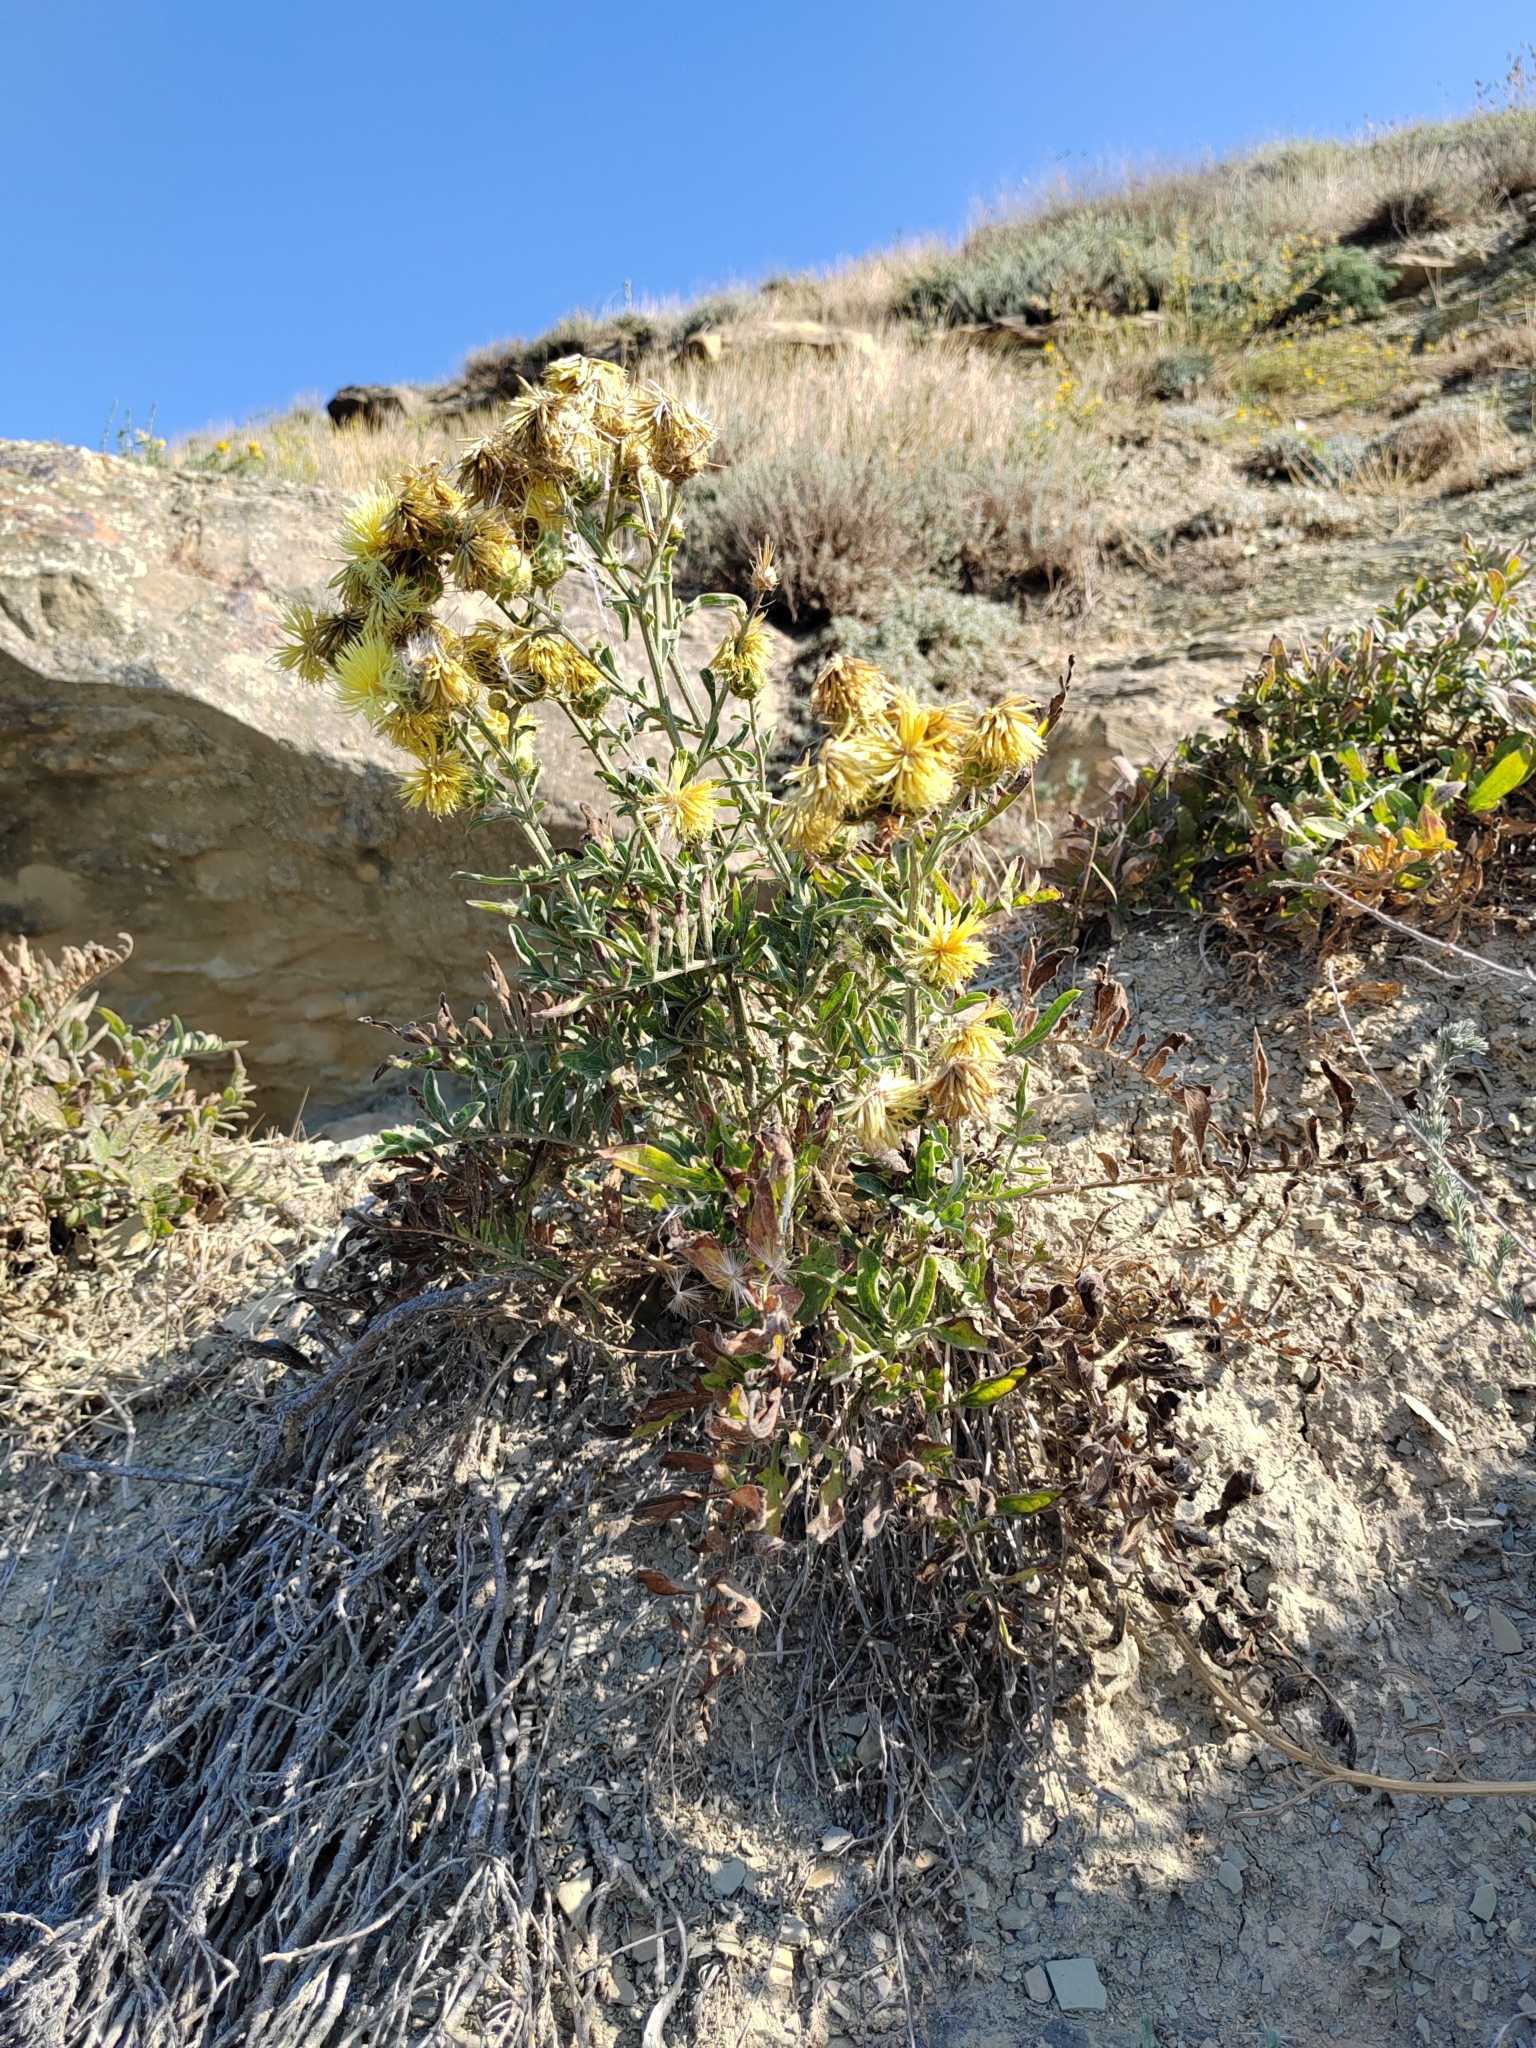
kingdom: Plantae
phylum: Tracheophyta
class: Magnoliopsida
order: Asterales
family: Asteraceae
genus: Centaurea
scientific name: Centaurea salonitana
